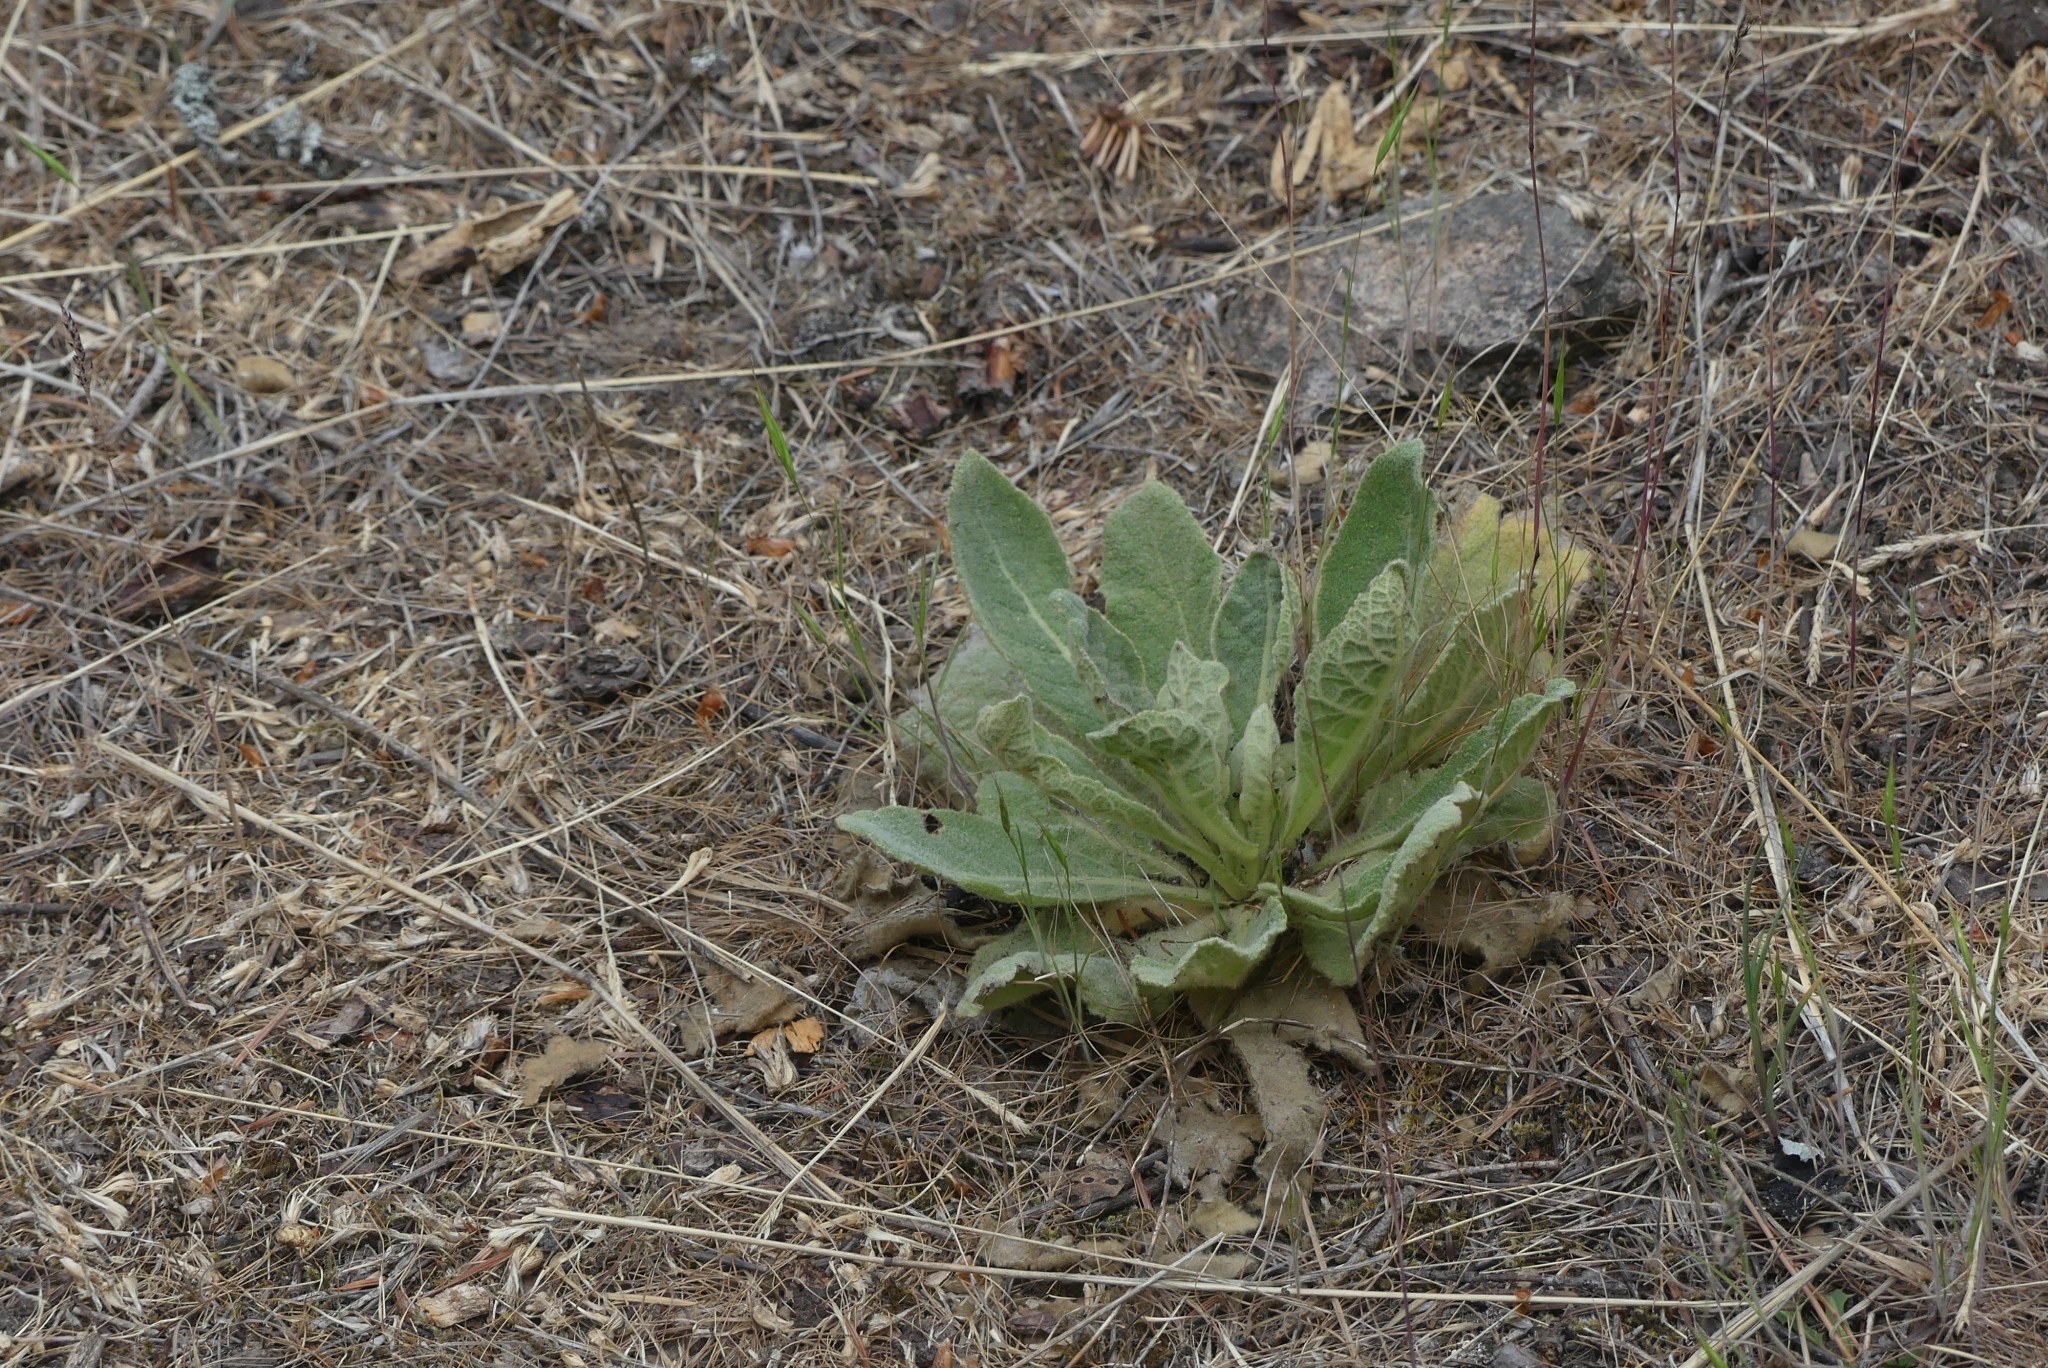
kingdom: Plantae
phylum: Tracheophyta
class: Magnoliopsida
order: Lamiales
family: Scrophulariaceae
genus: Verbascum
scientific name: Verbascum thapsus
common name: Common mullein
